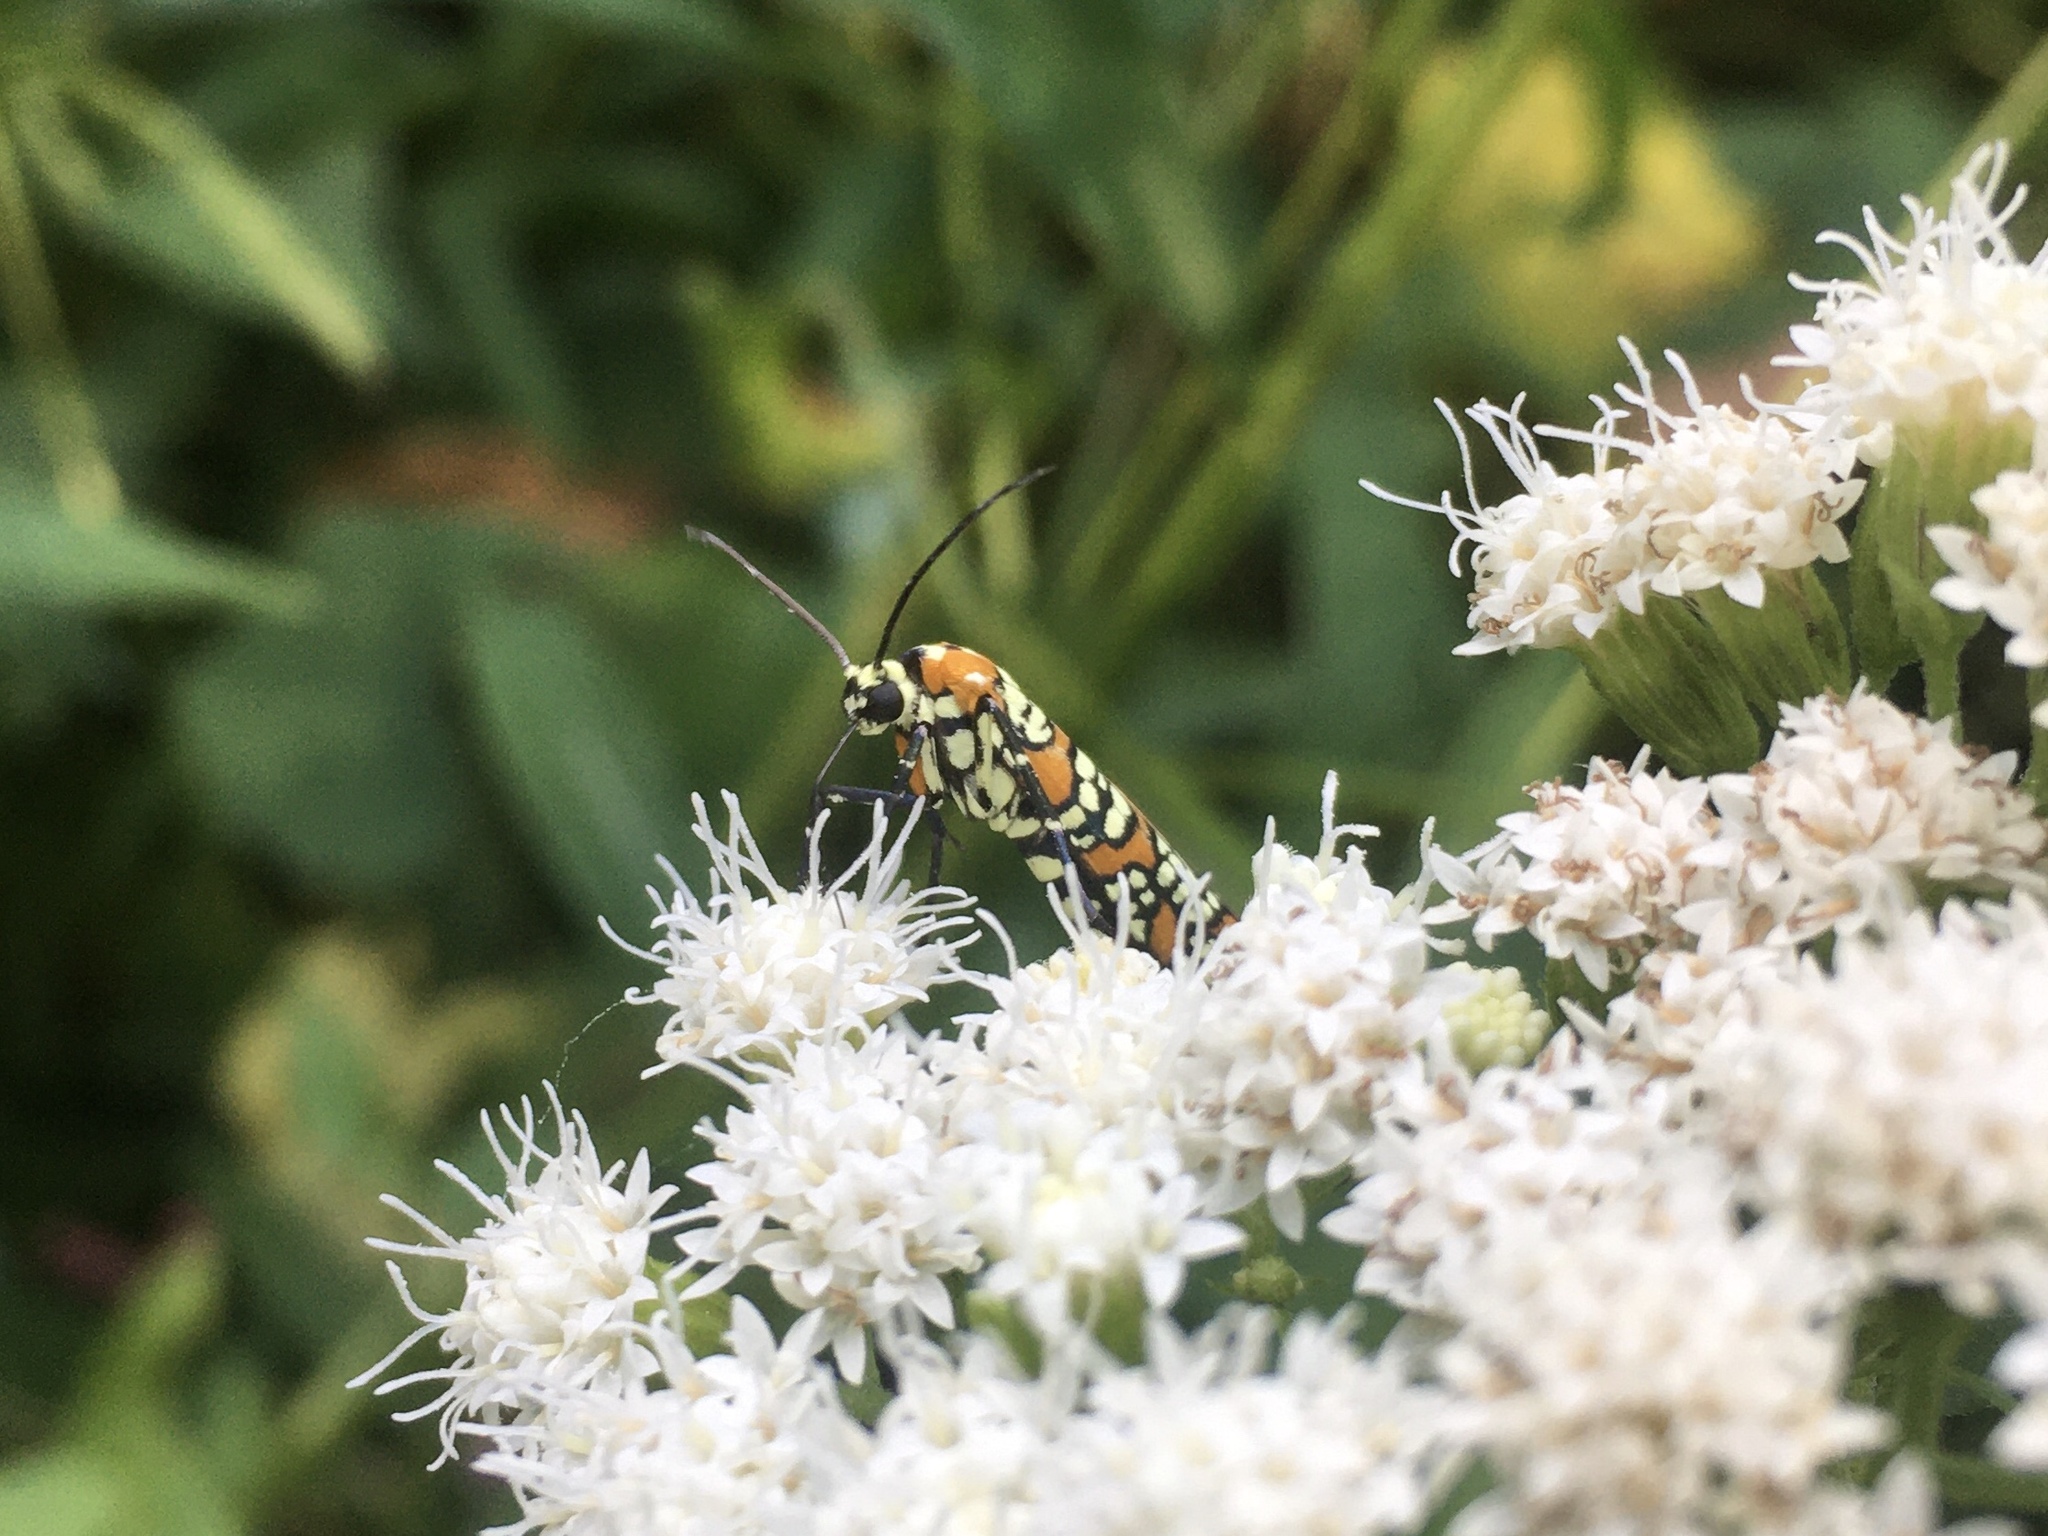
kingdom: Animalia
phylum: Arthropoda
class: Insecta
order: Lepidoptera
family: Attevidae
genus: Atteva
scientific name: Atteva punctella
